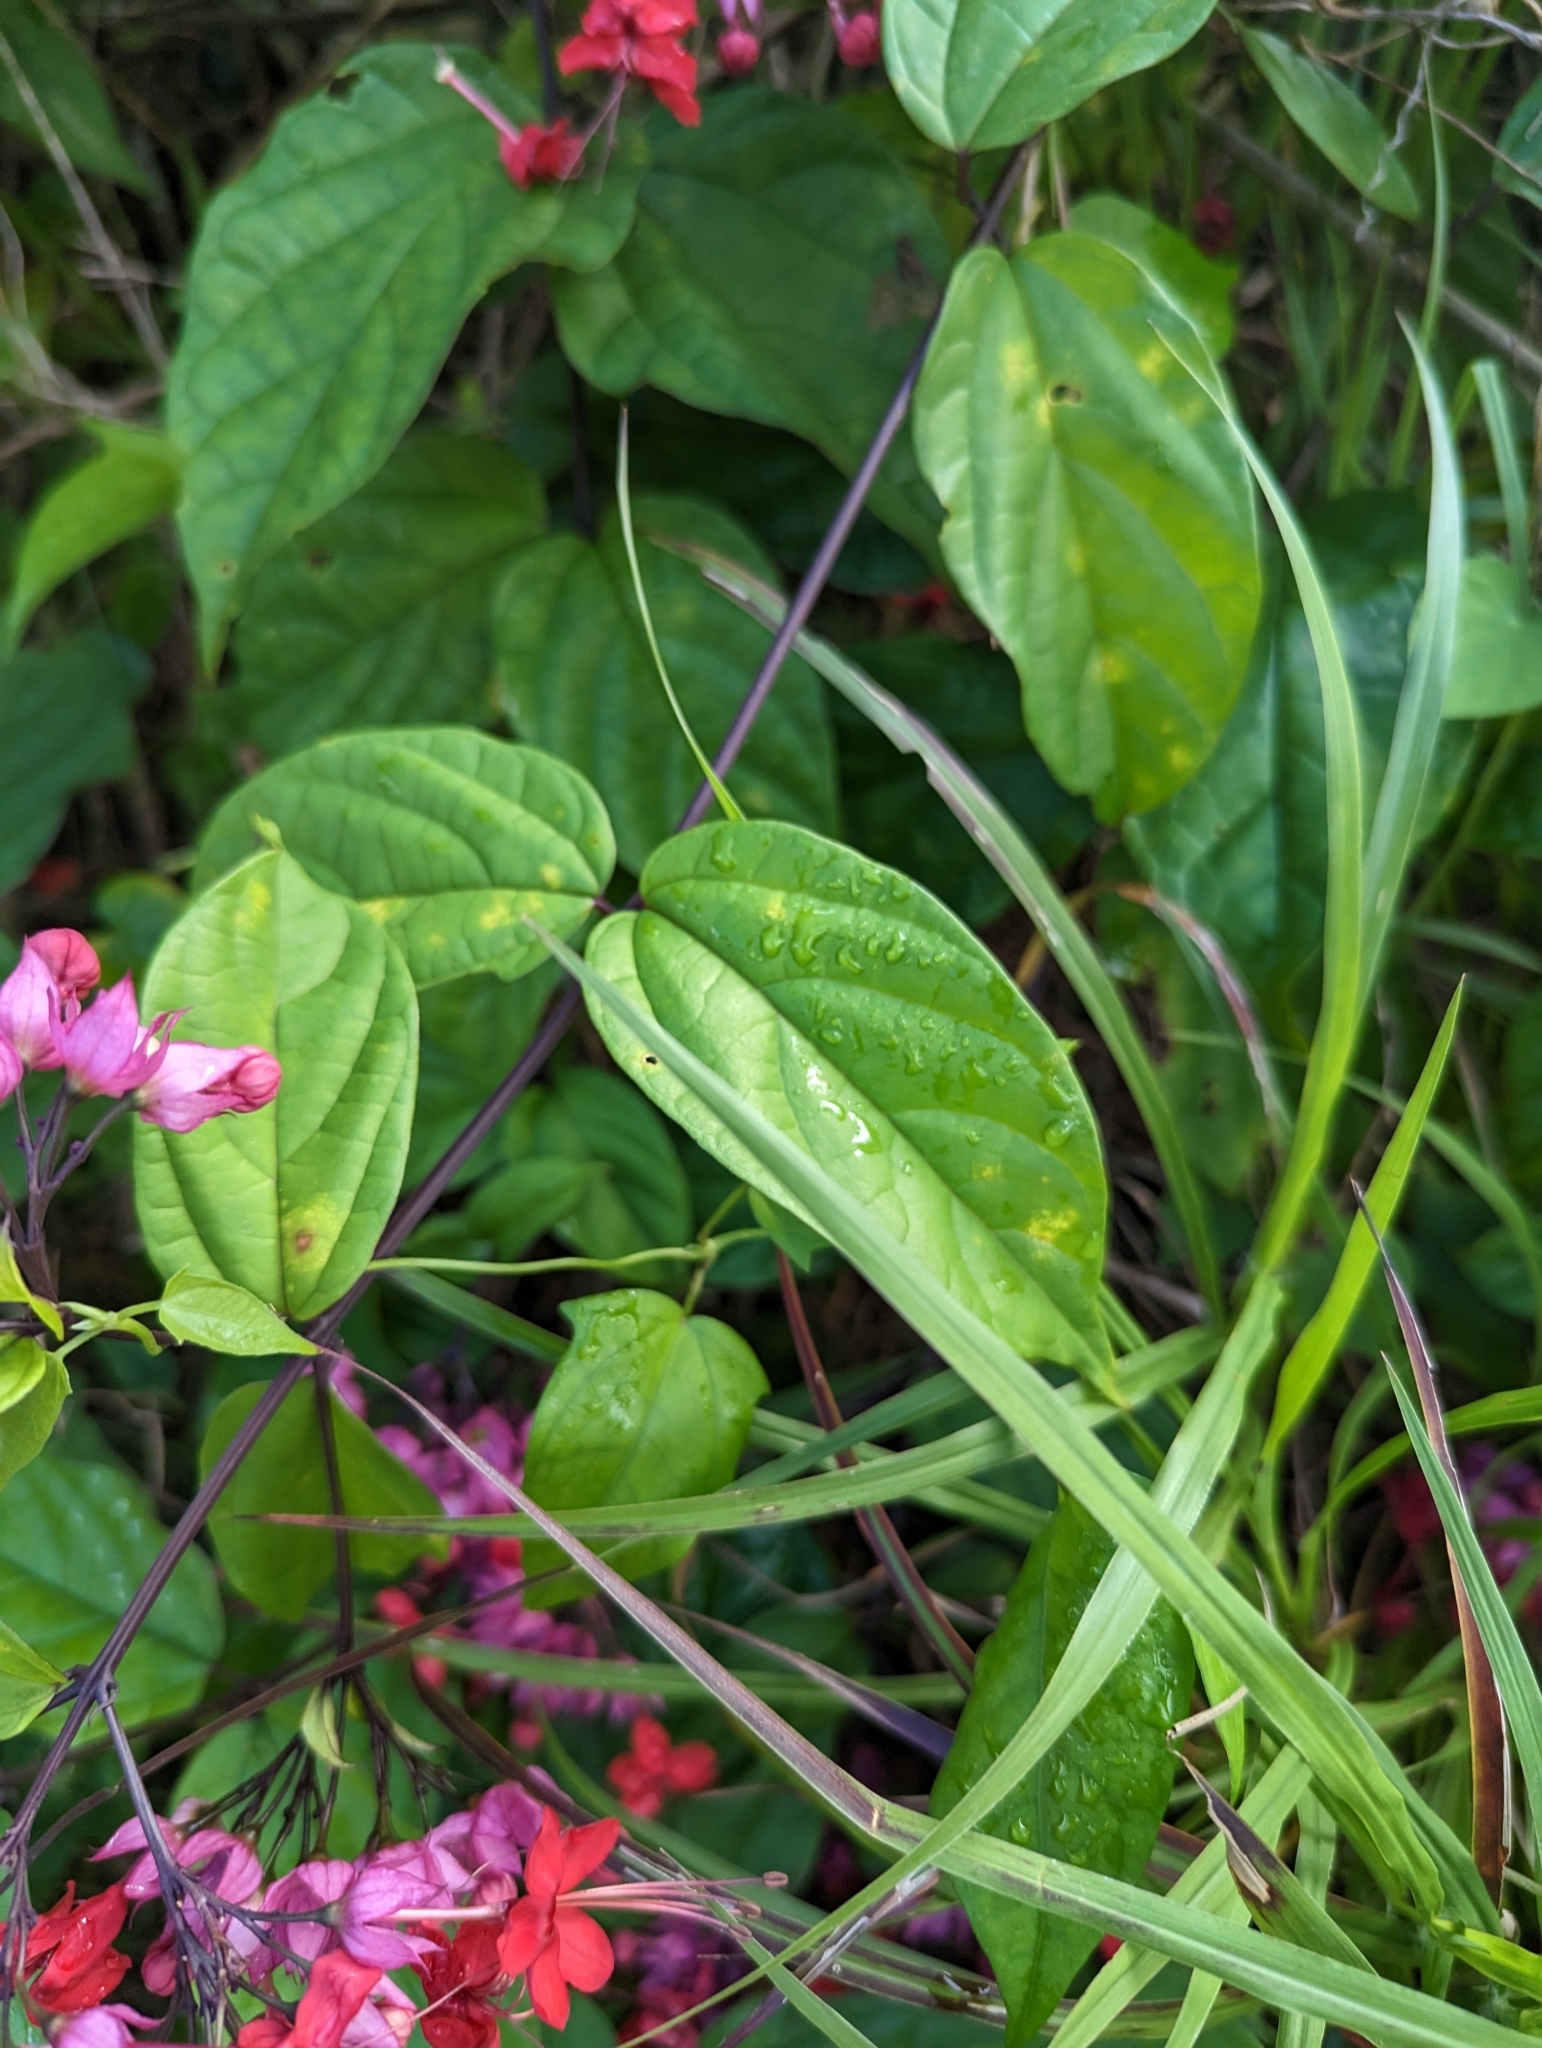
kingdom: Plantae
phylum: Tracheophyta
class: Magnoliopsida
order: Lamiales
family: Lamiaceae
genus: Clerodendrum
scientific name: Clerodendrum speciosum
